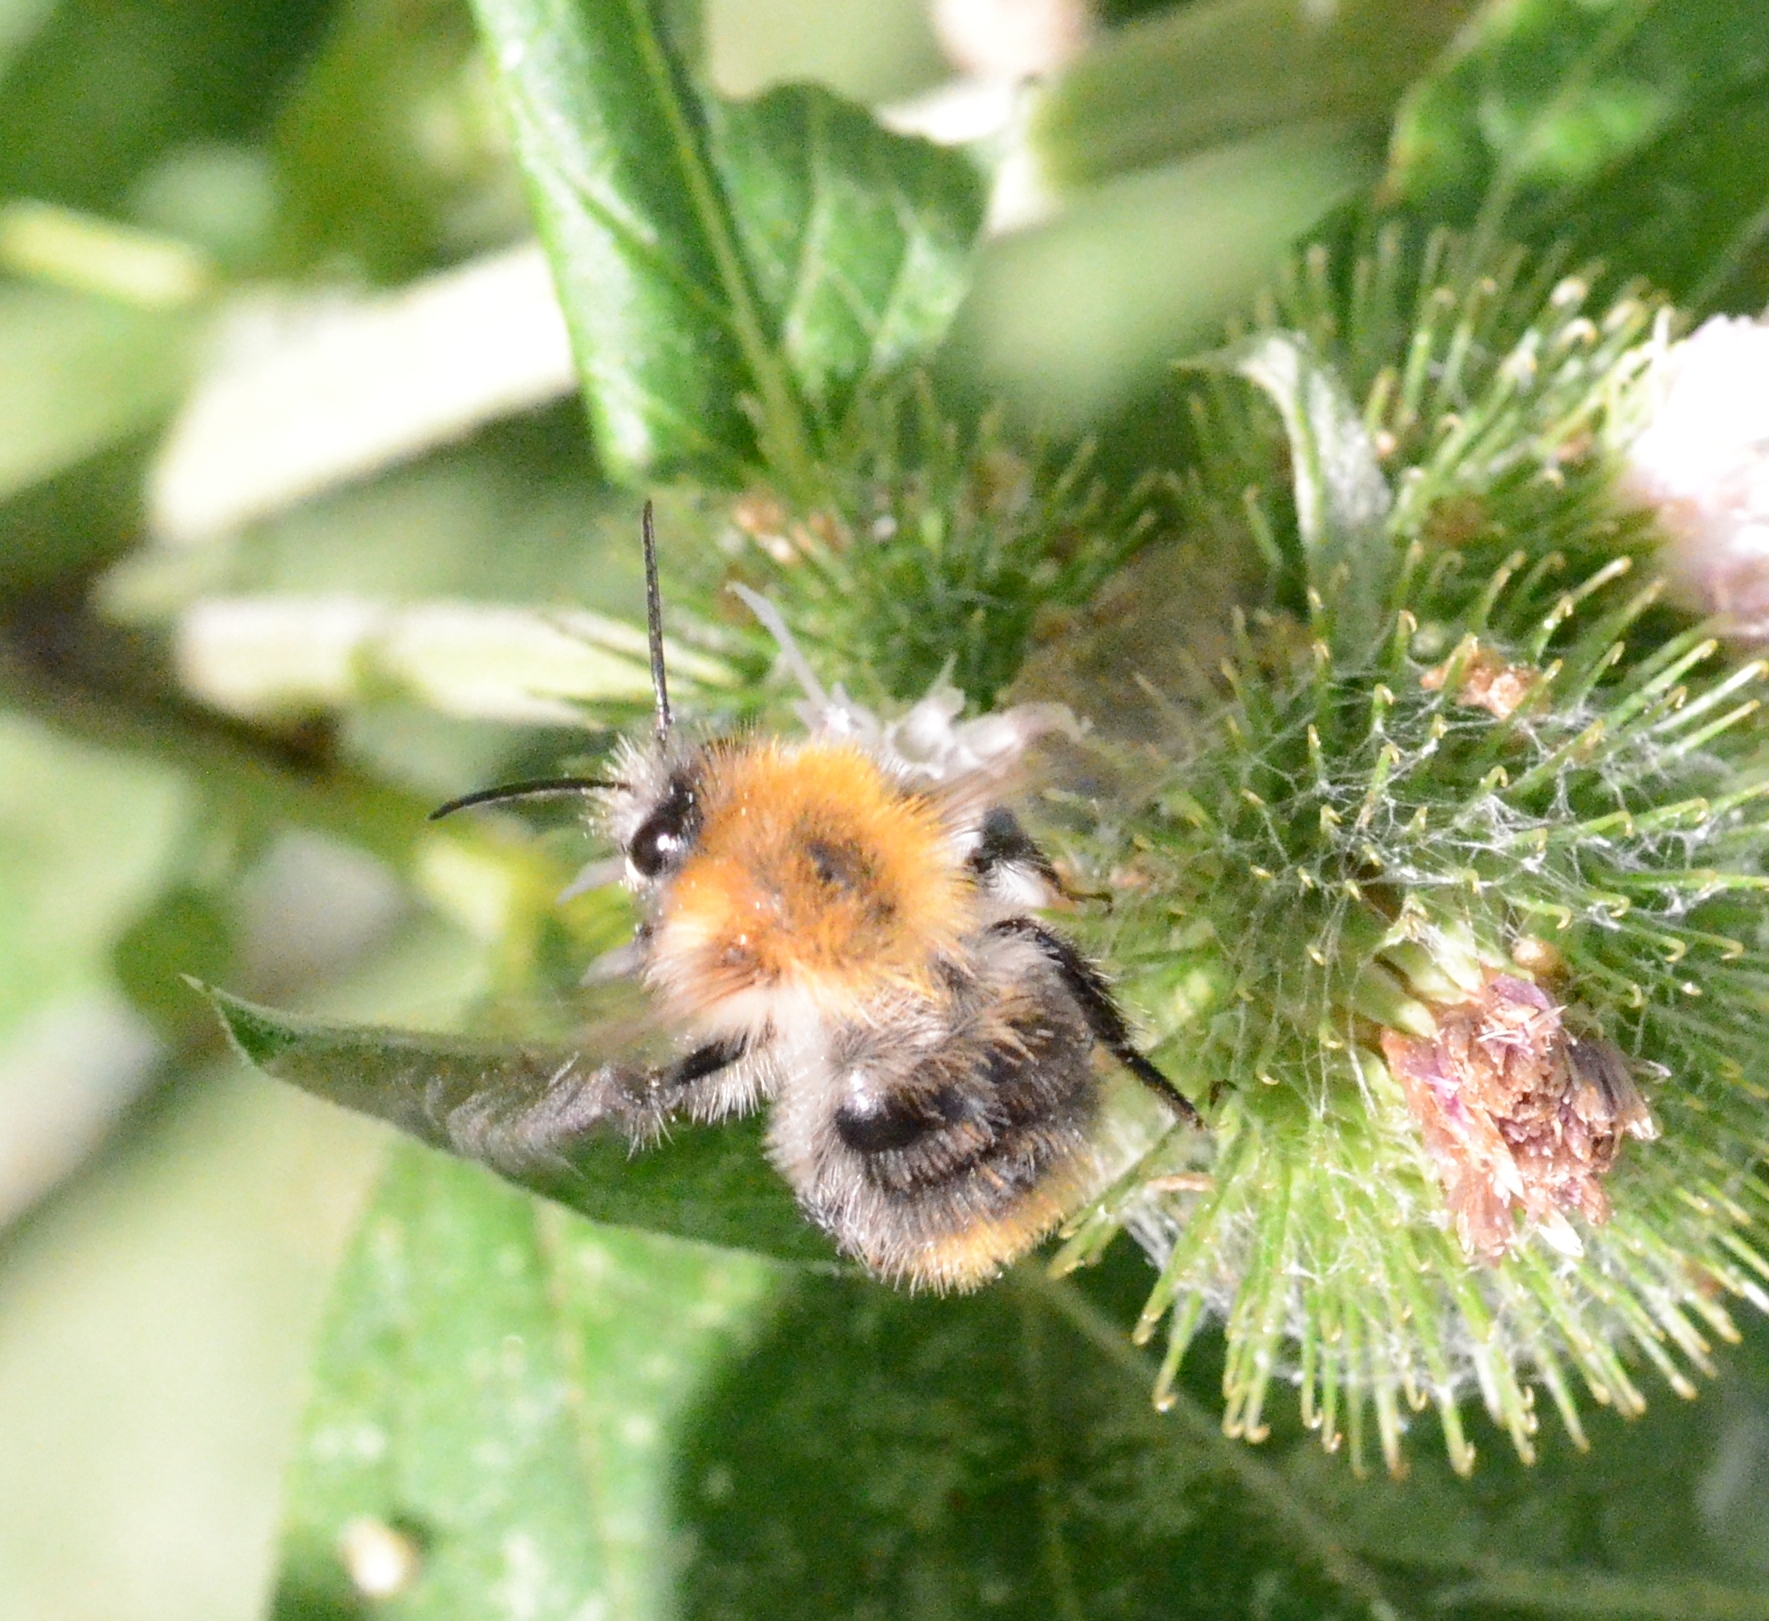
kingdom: Animalia
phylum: Arthropoda
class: Insecta
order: Hymenoptera
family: Apidae
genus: Bombus
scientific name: Bombus pascuorum
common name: Common carder bee
